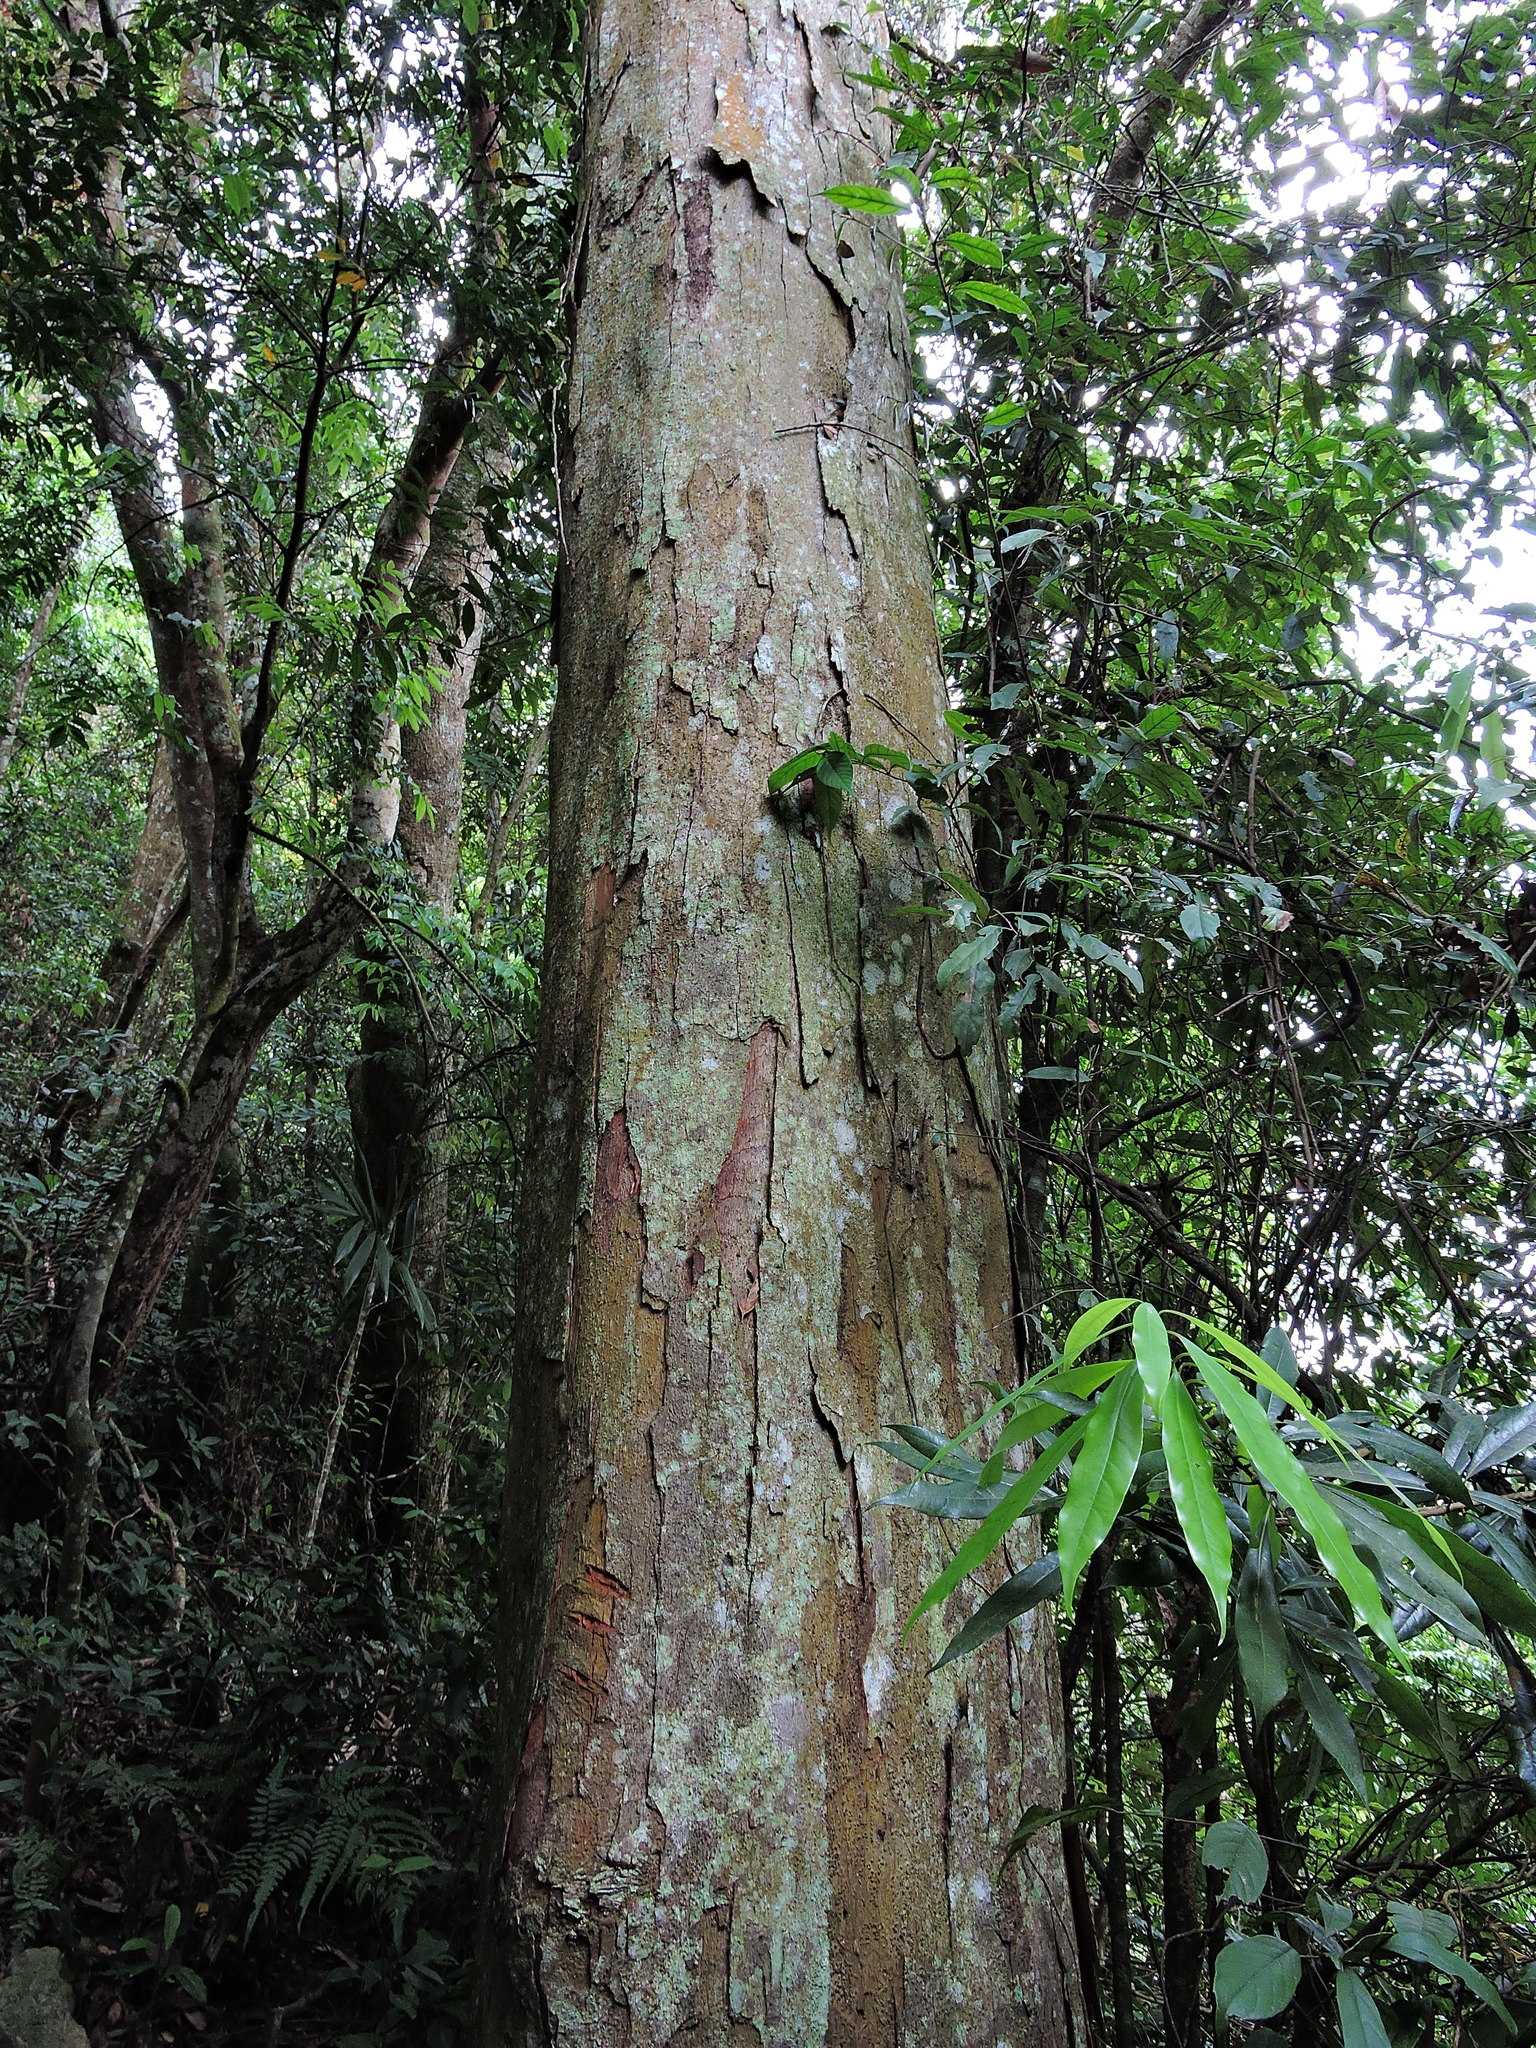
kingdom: Plantae
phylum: Tracheophyta
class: Magnoliopsida
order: Fagales
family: Fagaceae
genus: Castanopsis
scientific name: Castanopsis kawakamii
